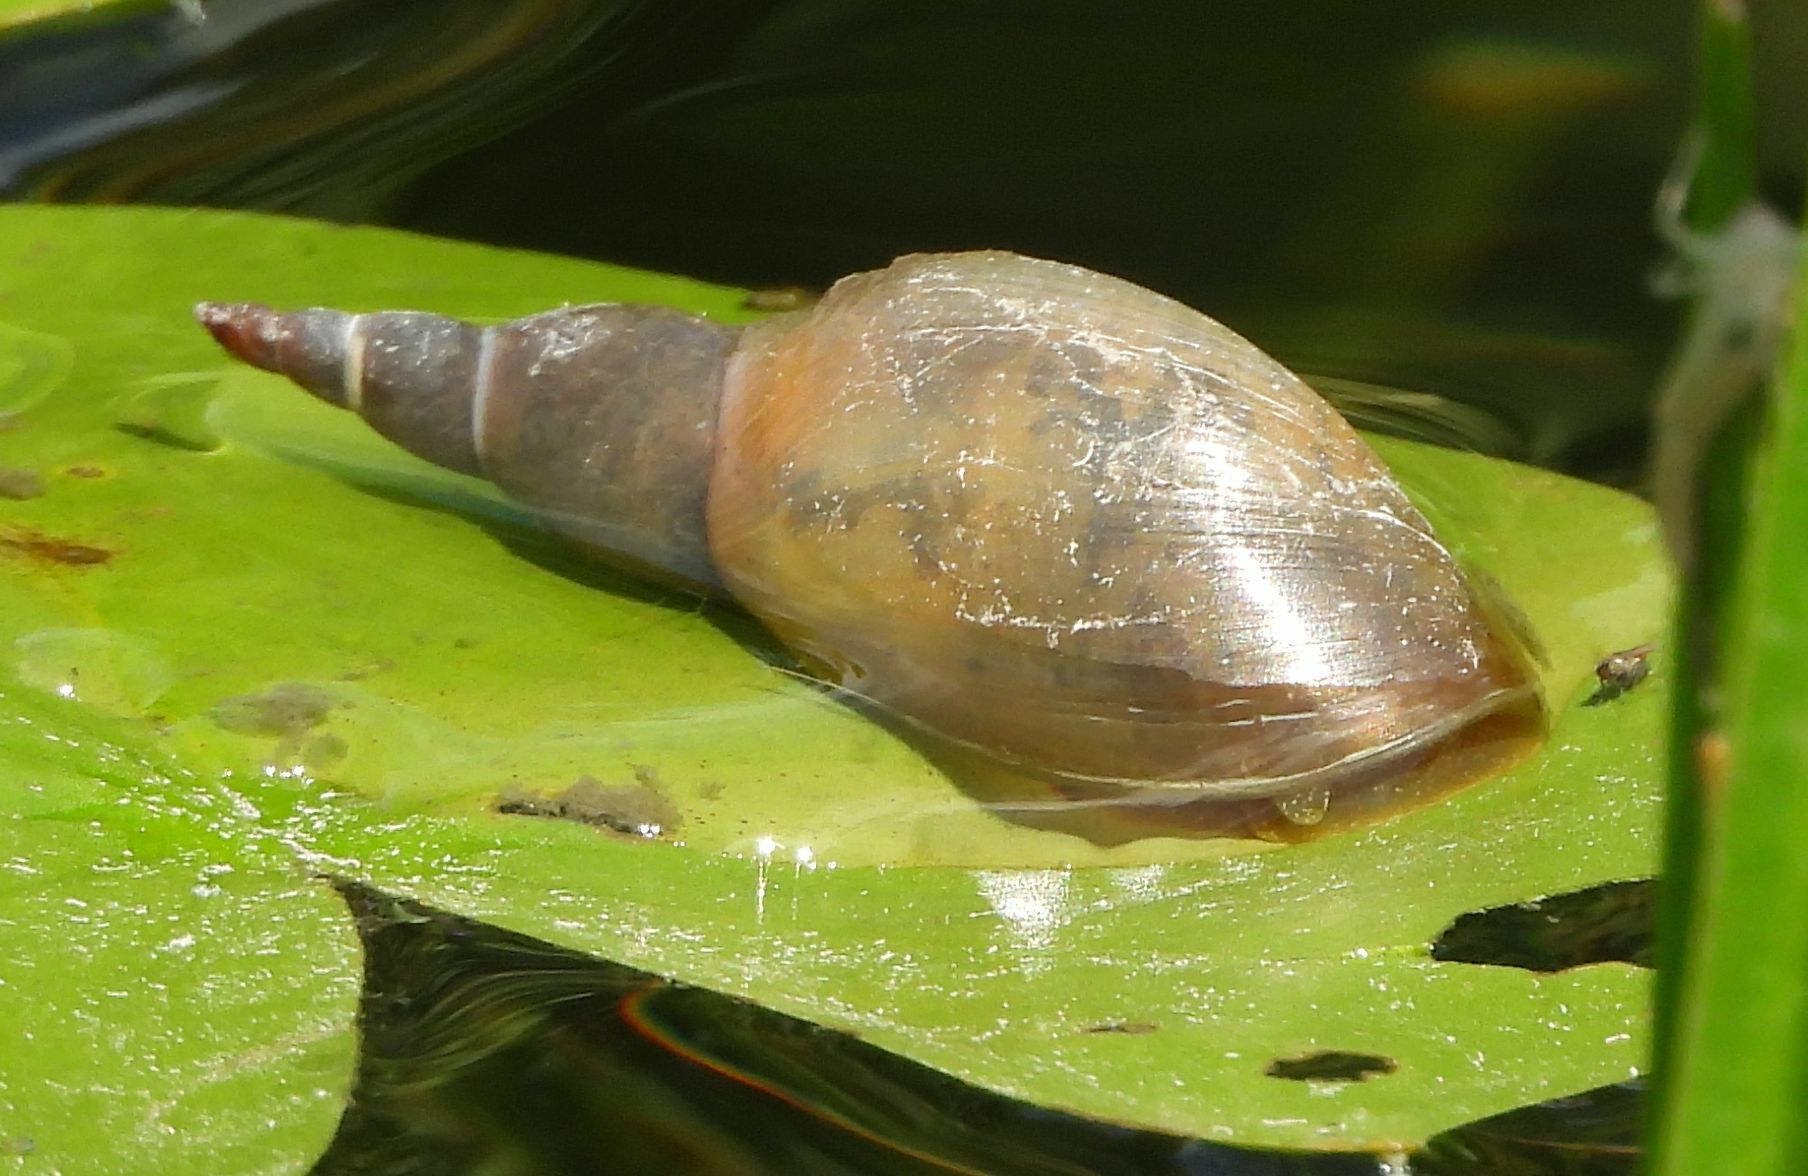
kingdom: Animalia
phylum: Mollusca
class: Gastropoda
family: Lymnaeidae
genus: Lymnaea
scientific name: Lymnaea stagnalis
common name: Great pond snail
